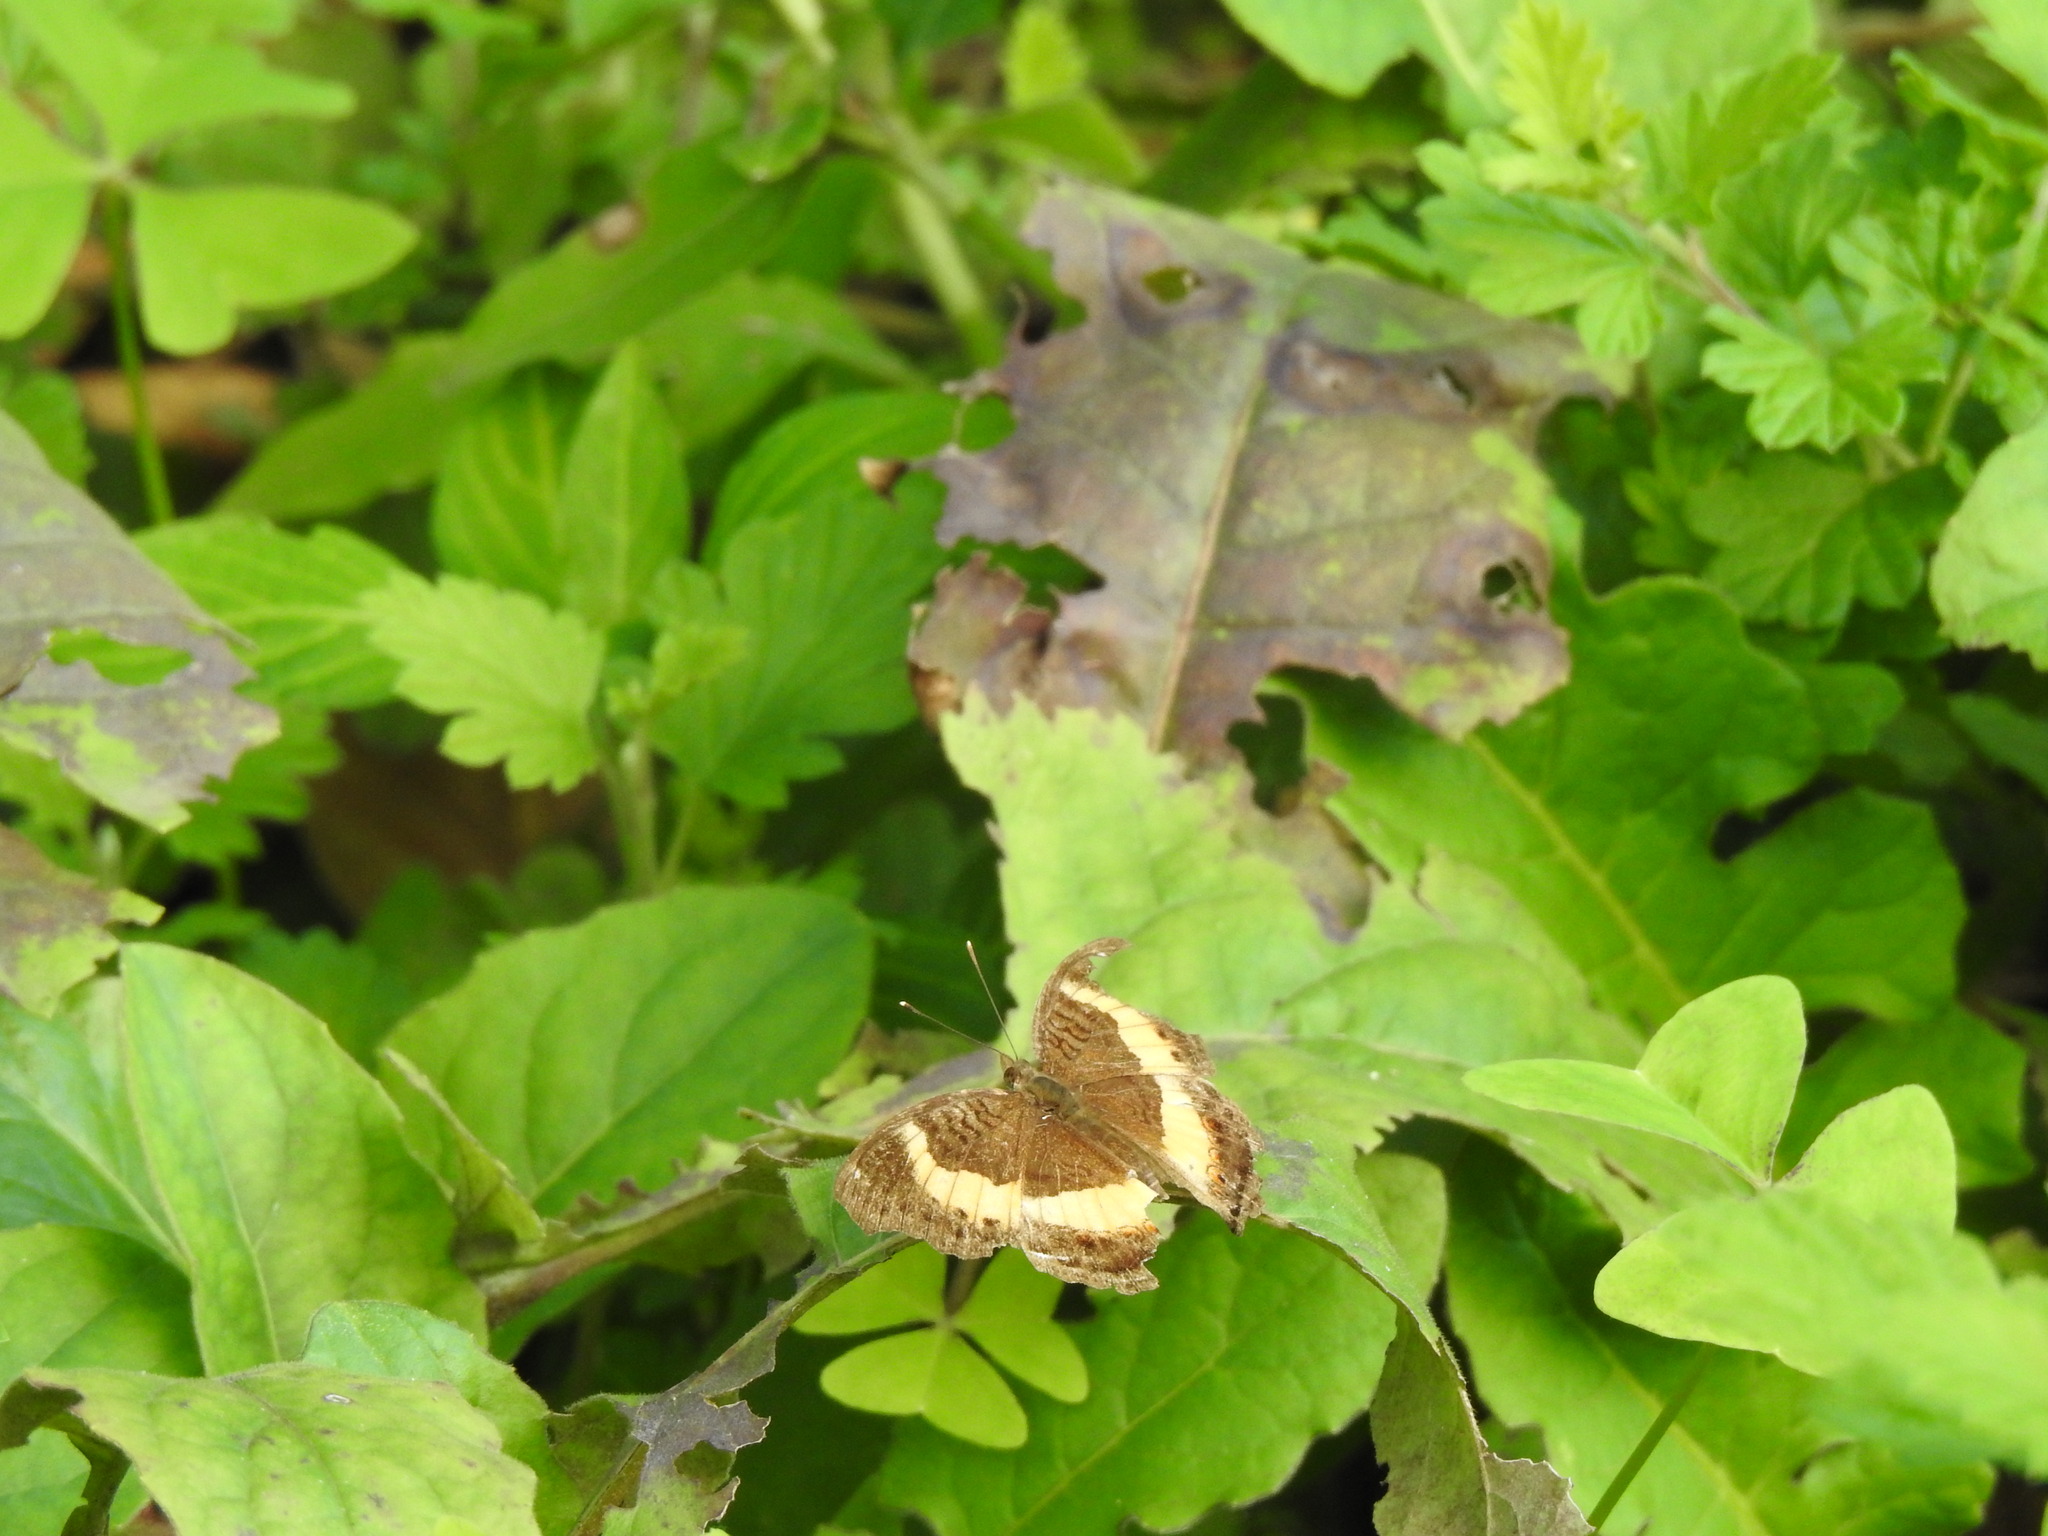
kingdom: Animalia
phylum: Arthropoda
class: Insecta
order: Lepidoptera
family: Nymphalidae
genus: Junonia
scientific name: Junonia terea
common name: Soldier pansy
